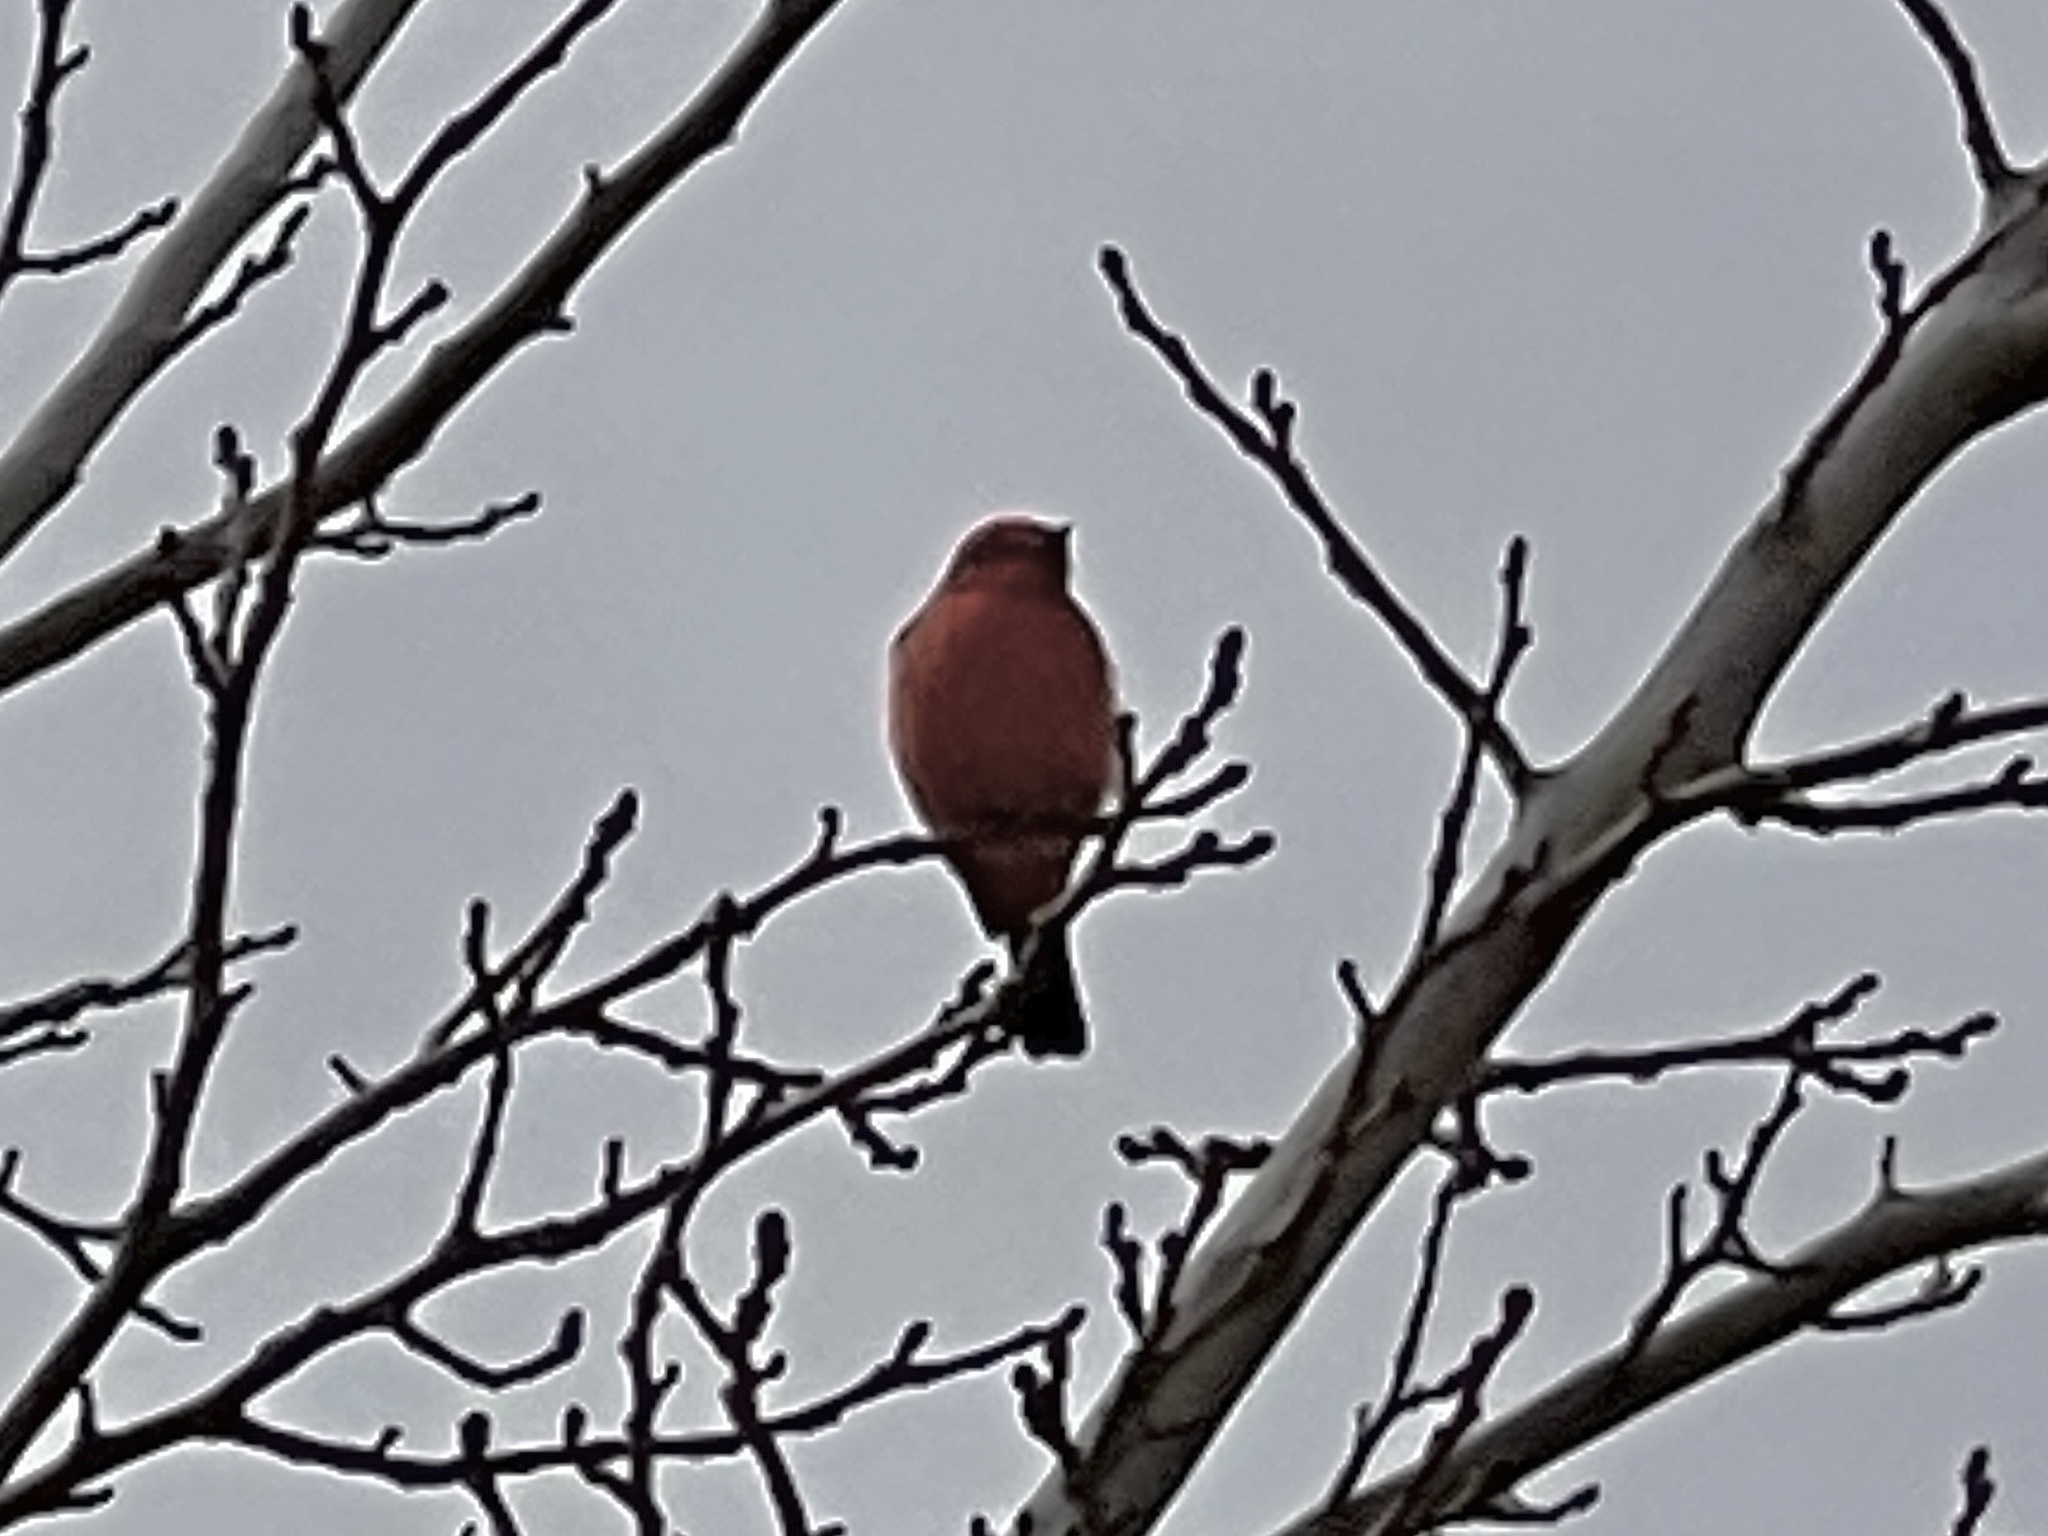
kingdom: Animalia
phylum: Chordata
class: Aves
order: Passeriformes
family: Tyrannidae
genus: Pyrocephalus
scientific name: Pyrocephalus rubinus
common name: Vermilion flycatcher
